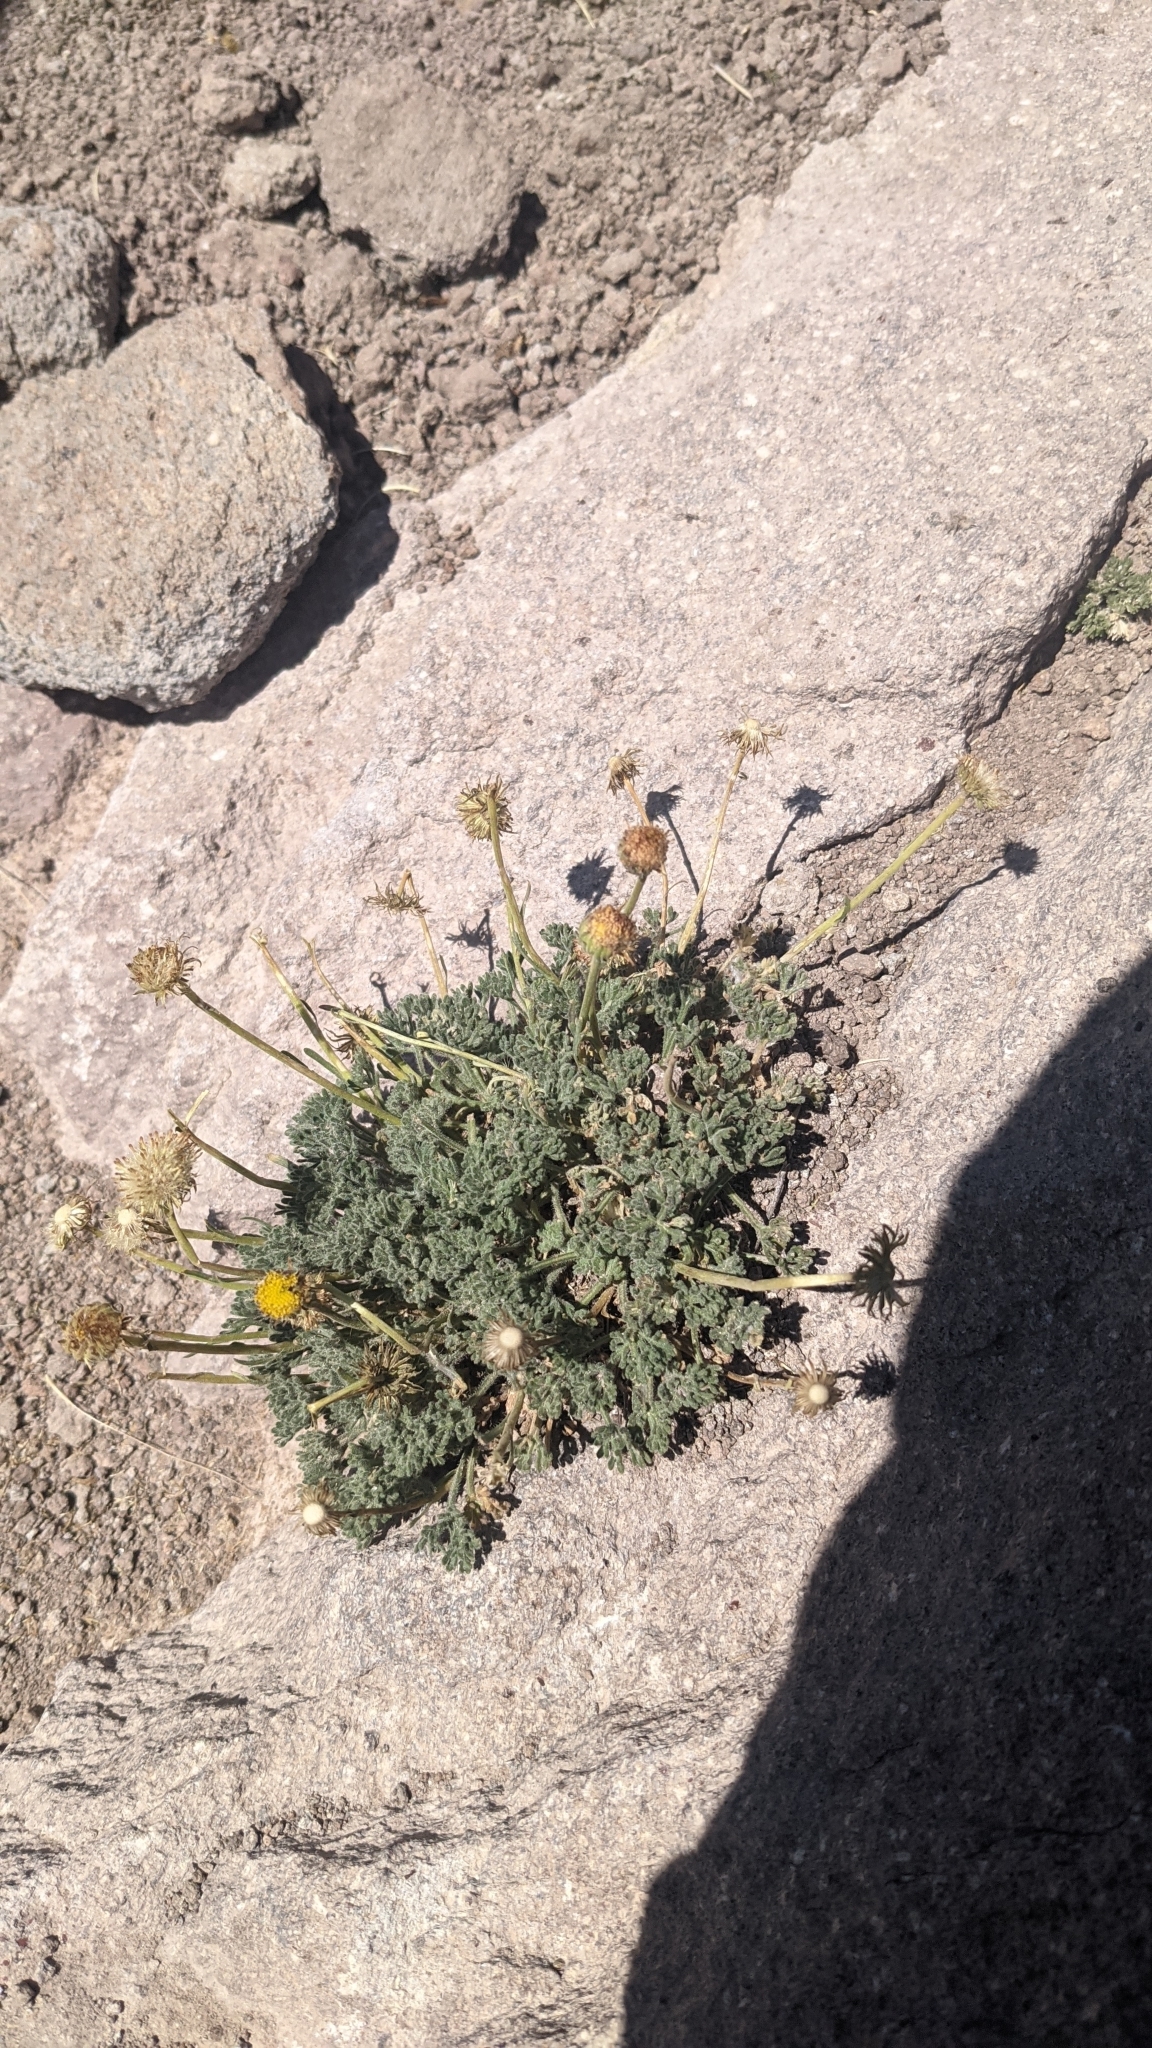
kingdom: Plantae
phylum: Tracheophyta
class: Magnoliopsida
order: Asterales
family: Asteraceae
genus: Erigeron
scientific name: Erigeron compositus
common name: Dwarf mountain fleabane
